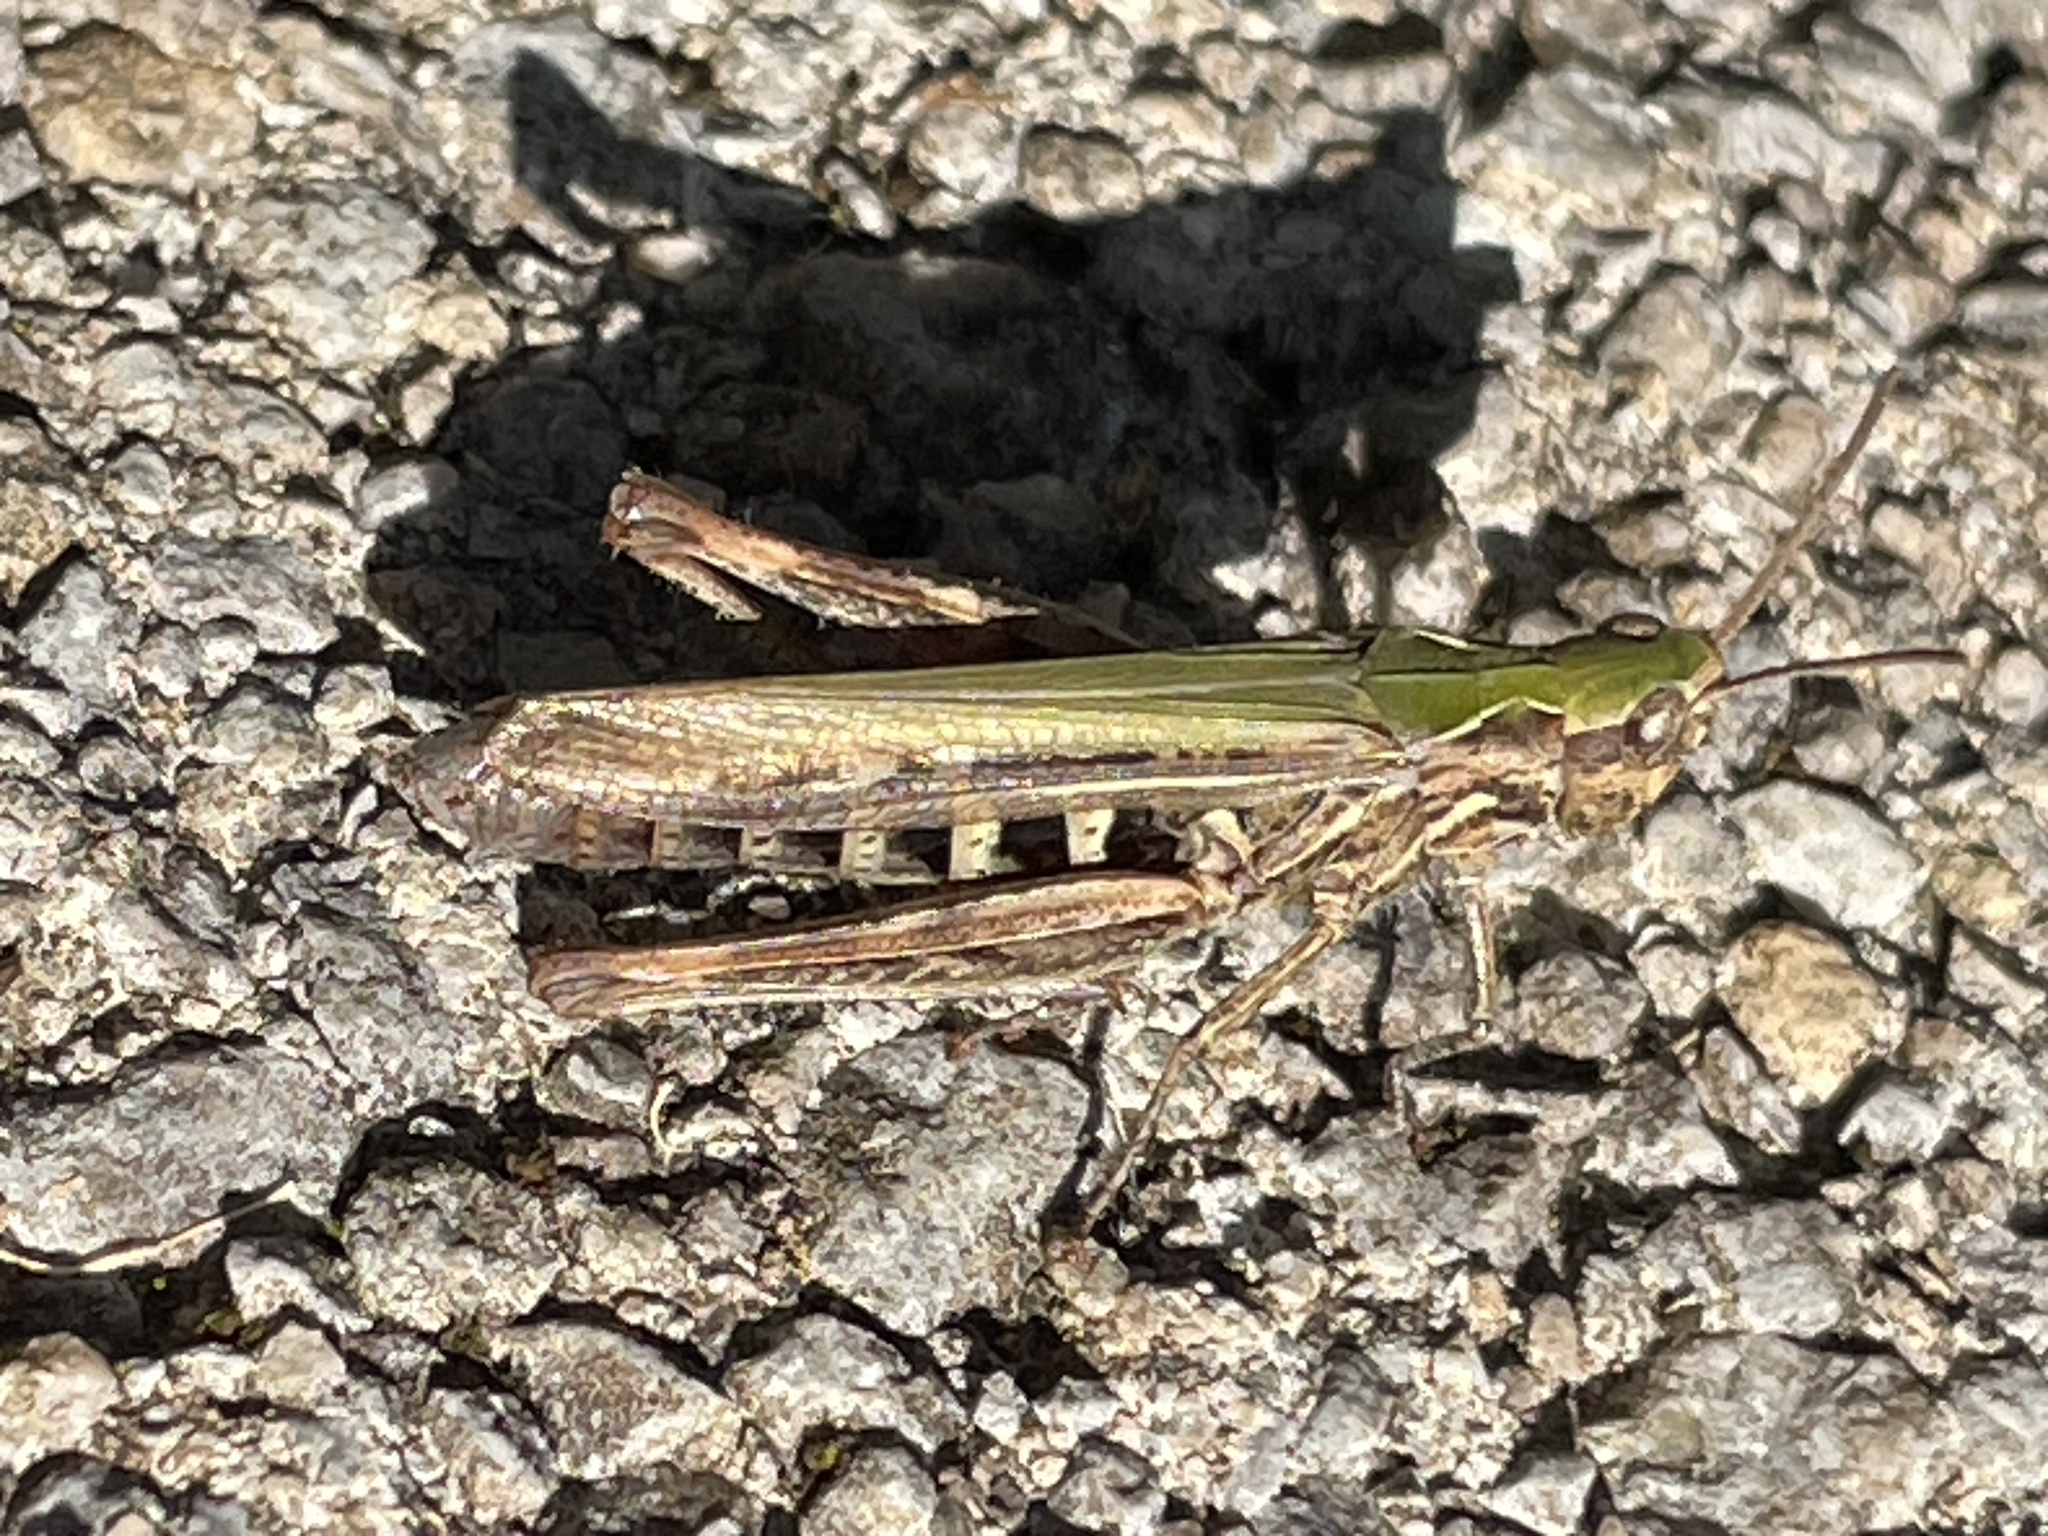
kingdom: Animalia
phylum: Arthropoda
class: Insecta
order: Orthoptera
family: Acrididae
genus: Chorthippus
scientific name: Chorthippus brunneus
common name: Field grasshopper
